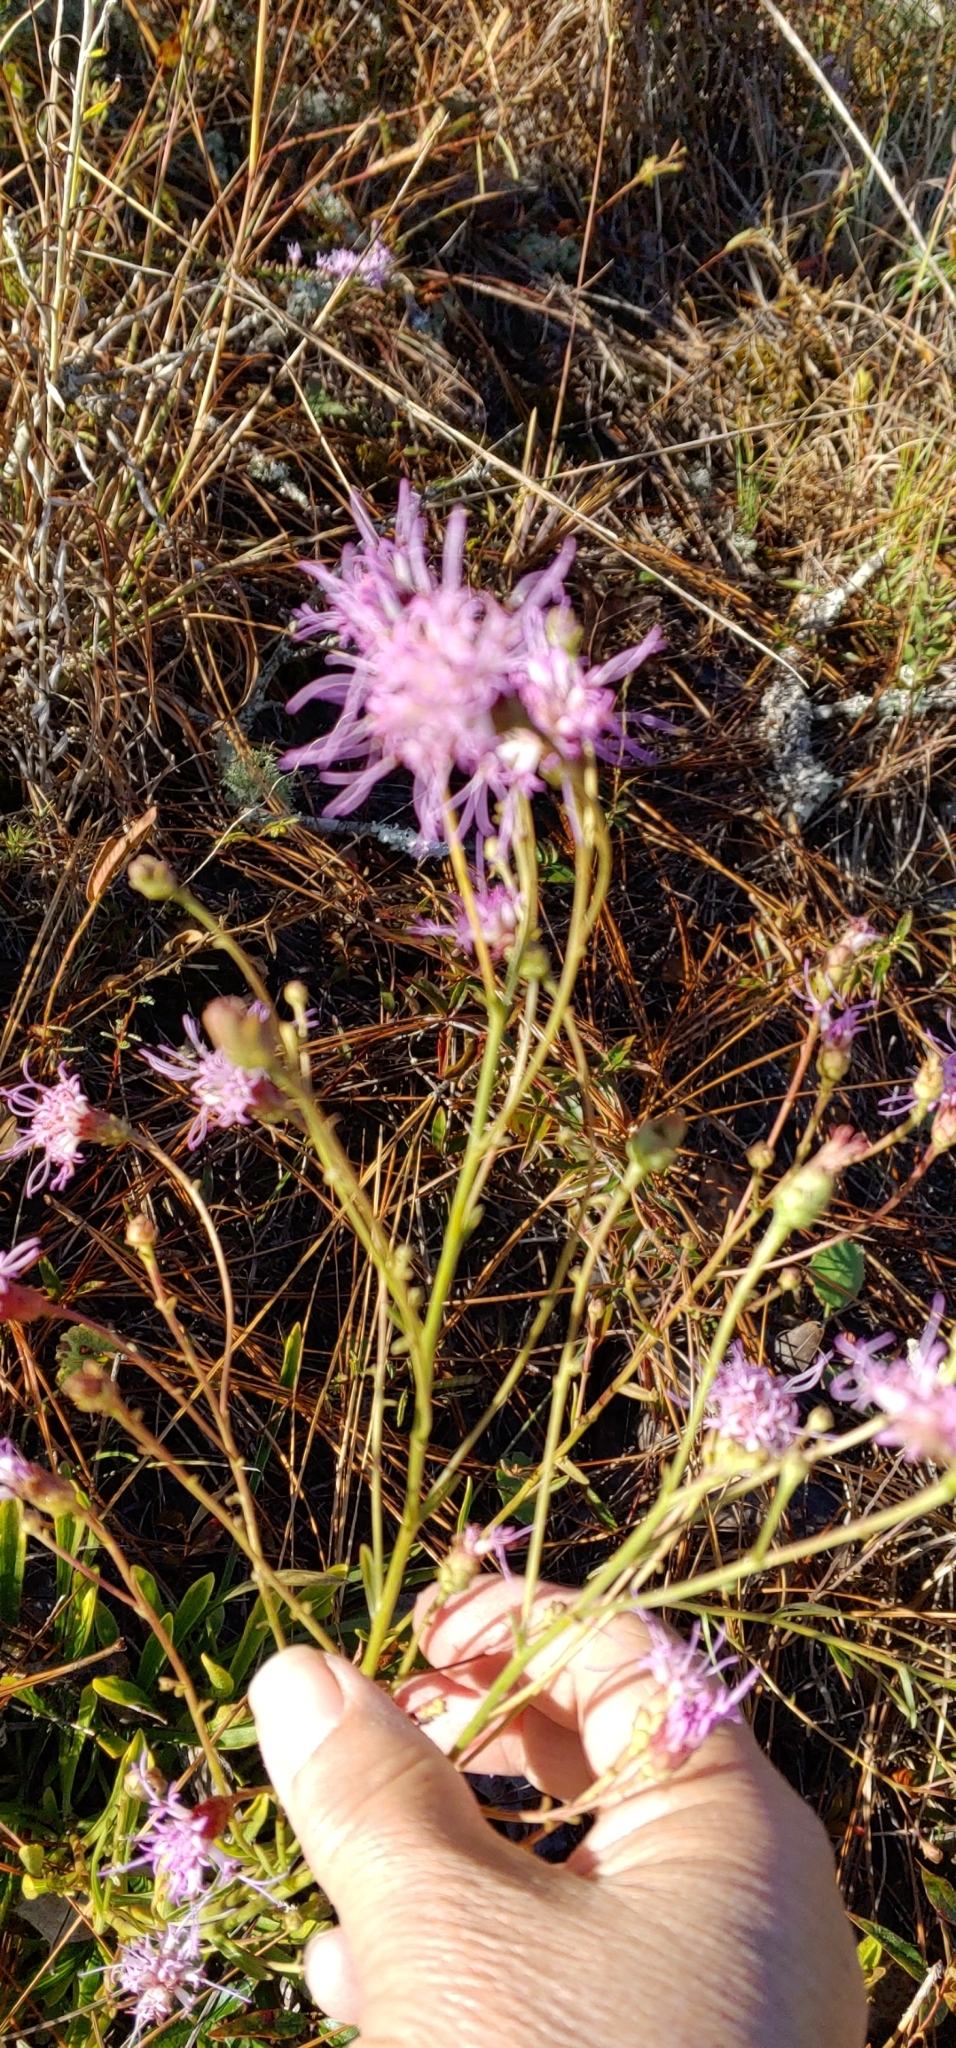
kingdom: Plantae
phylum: Tracheophyta
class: Magnoliopsida
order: Asterales
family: Asteraceae
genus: Carphephorus
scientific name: Carphephorus bellidifolius
